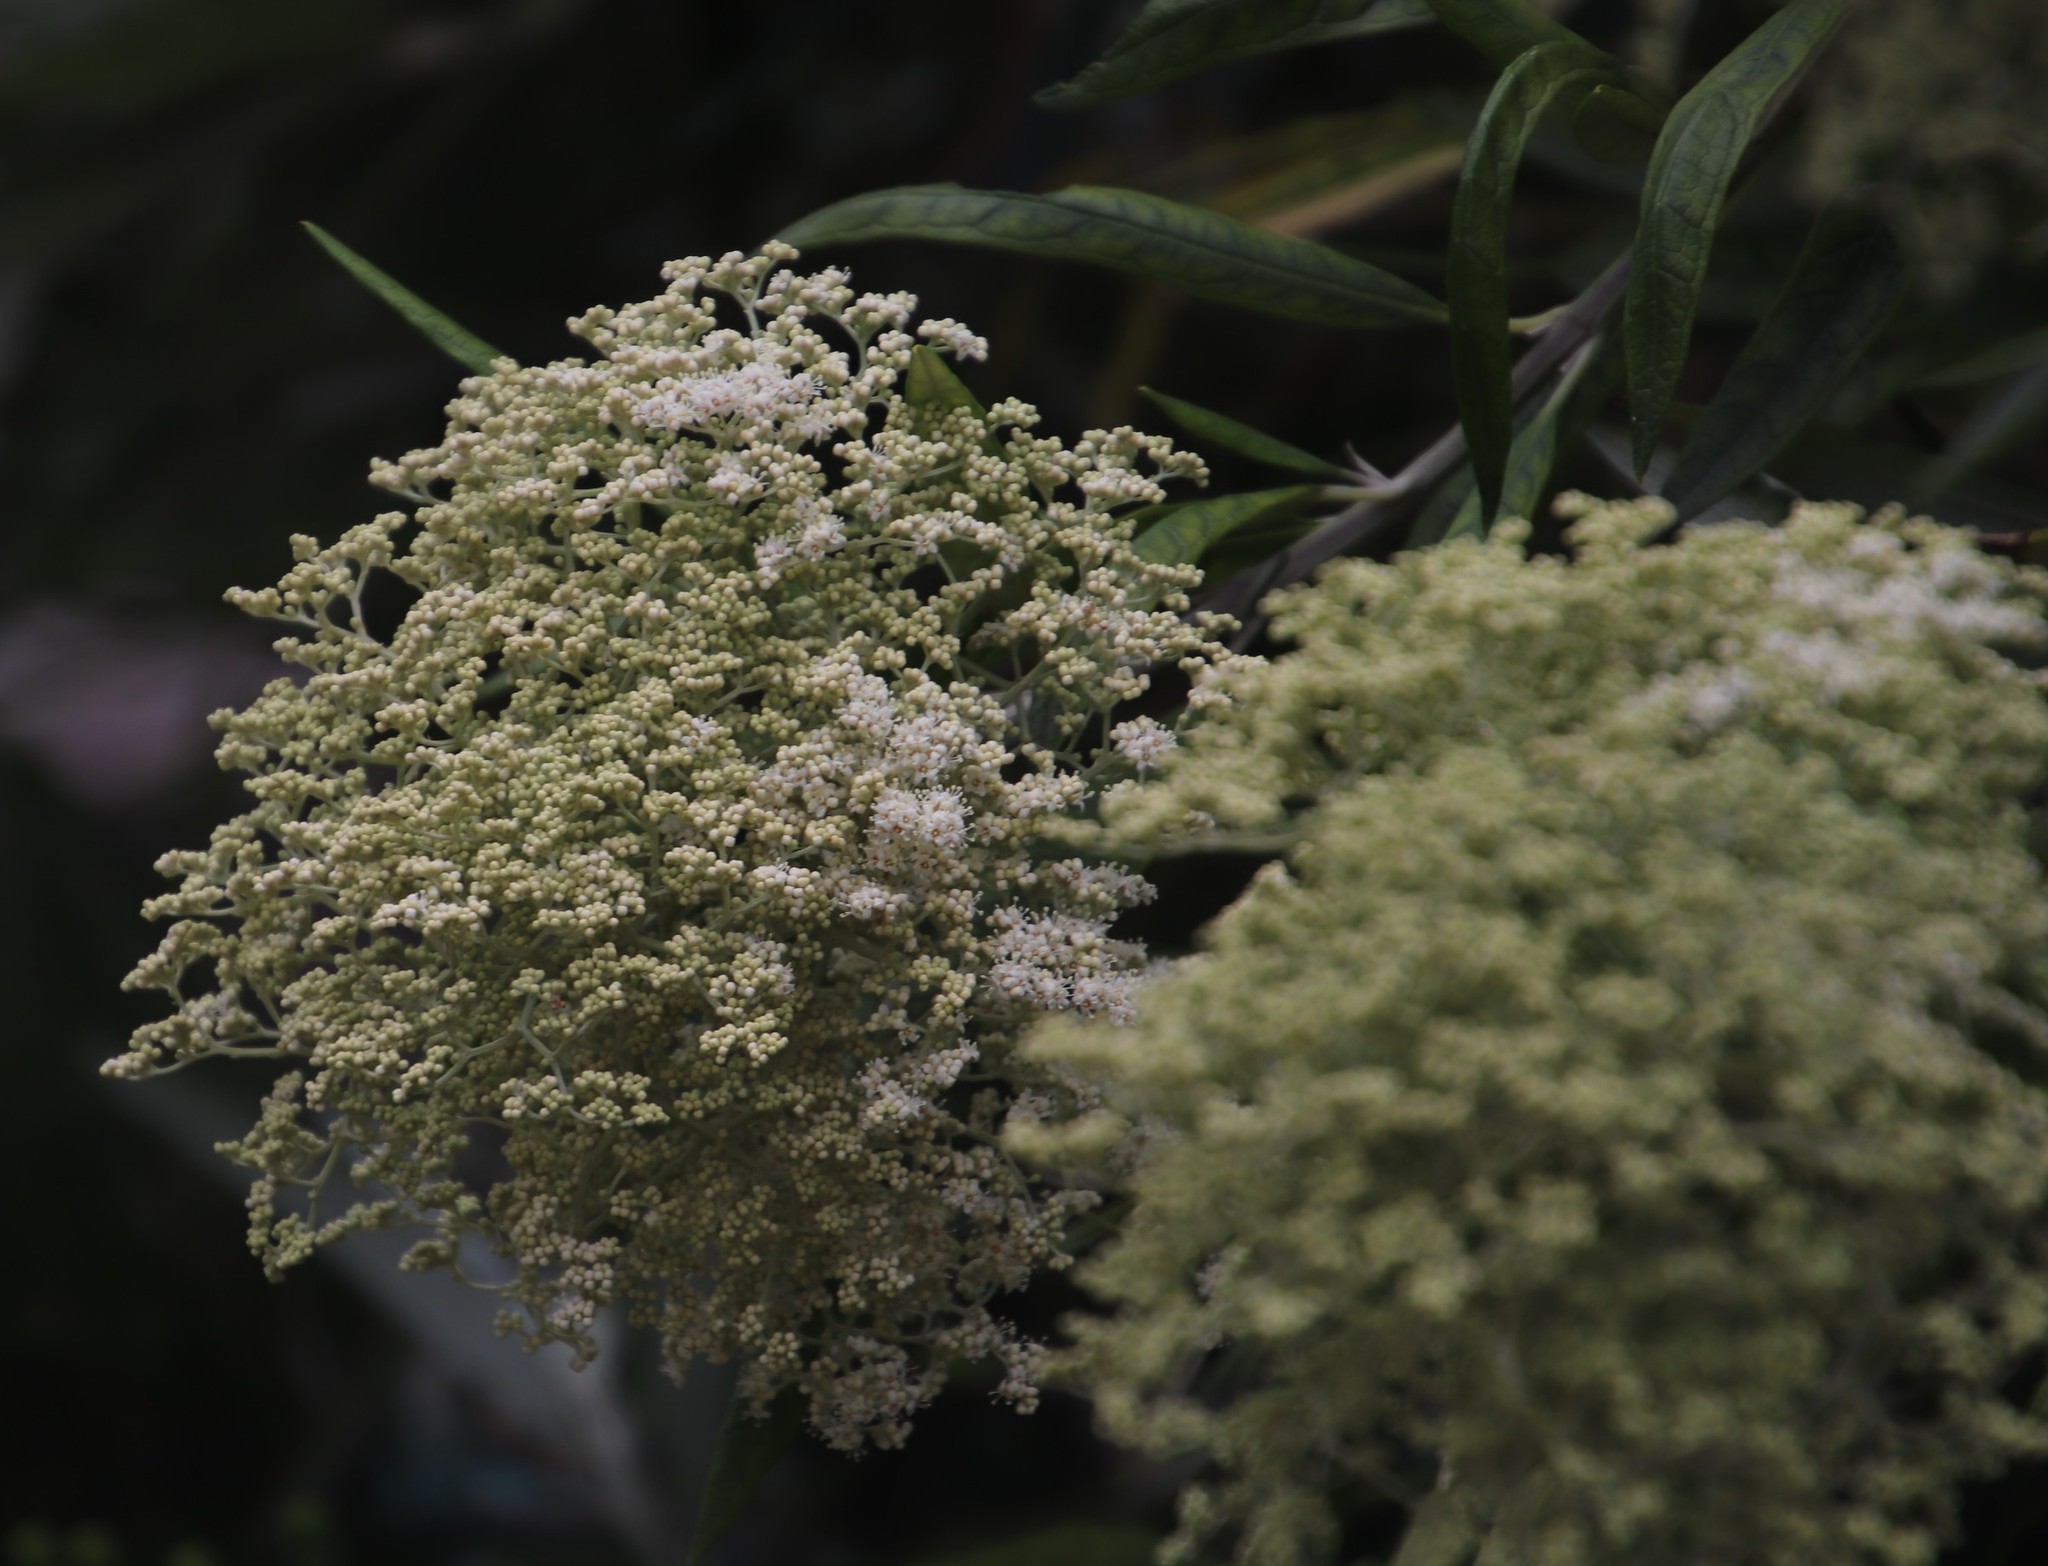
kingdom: Plantae
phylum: Tracheophyta
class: Magnoliopsida
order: Lamiales
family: Scrophulariaceae
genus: Buddleja
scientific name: Buddleja saligna
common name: False olive
